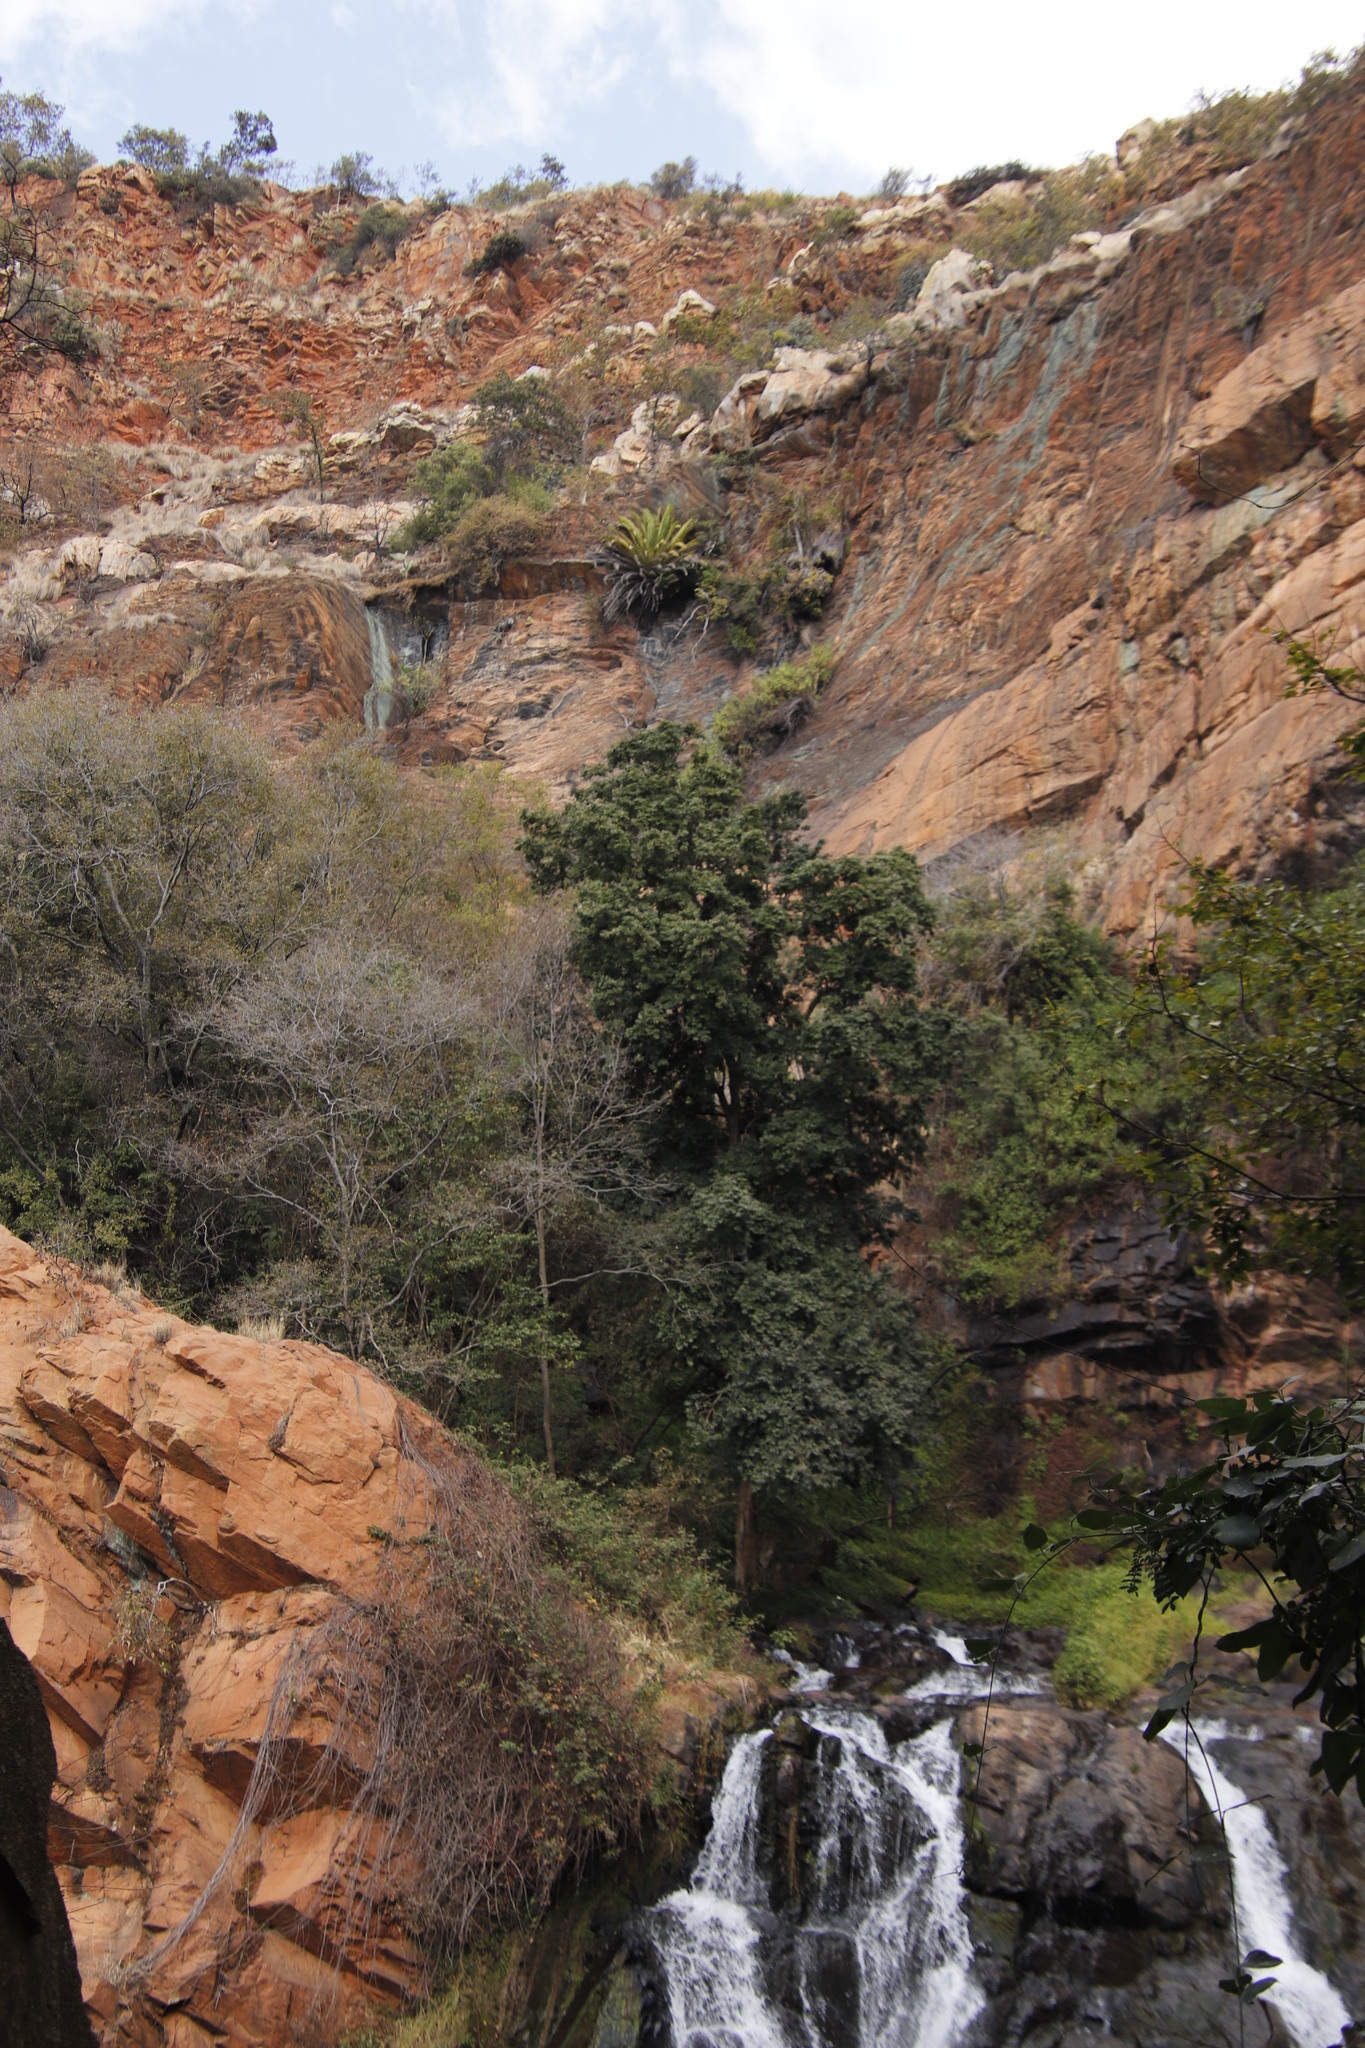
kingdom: Plantae
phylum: Tracheophyta
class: Liliopsida
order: Arecales
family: Arecaceae
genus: Phoenix
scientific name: Phoenix canariensis
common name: Canary island date palm
